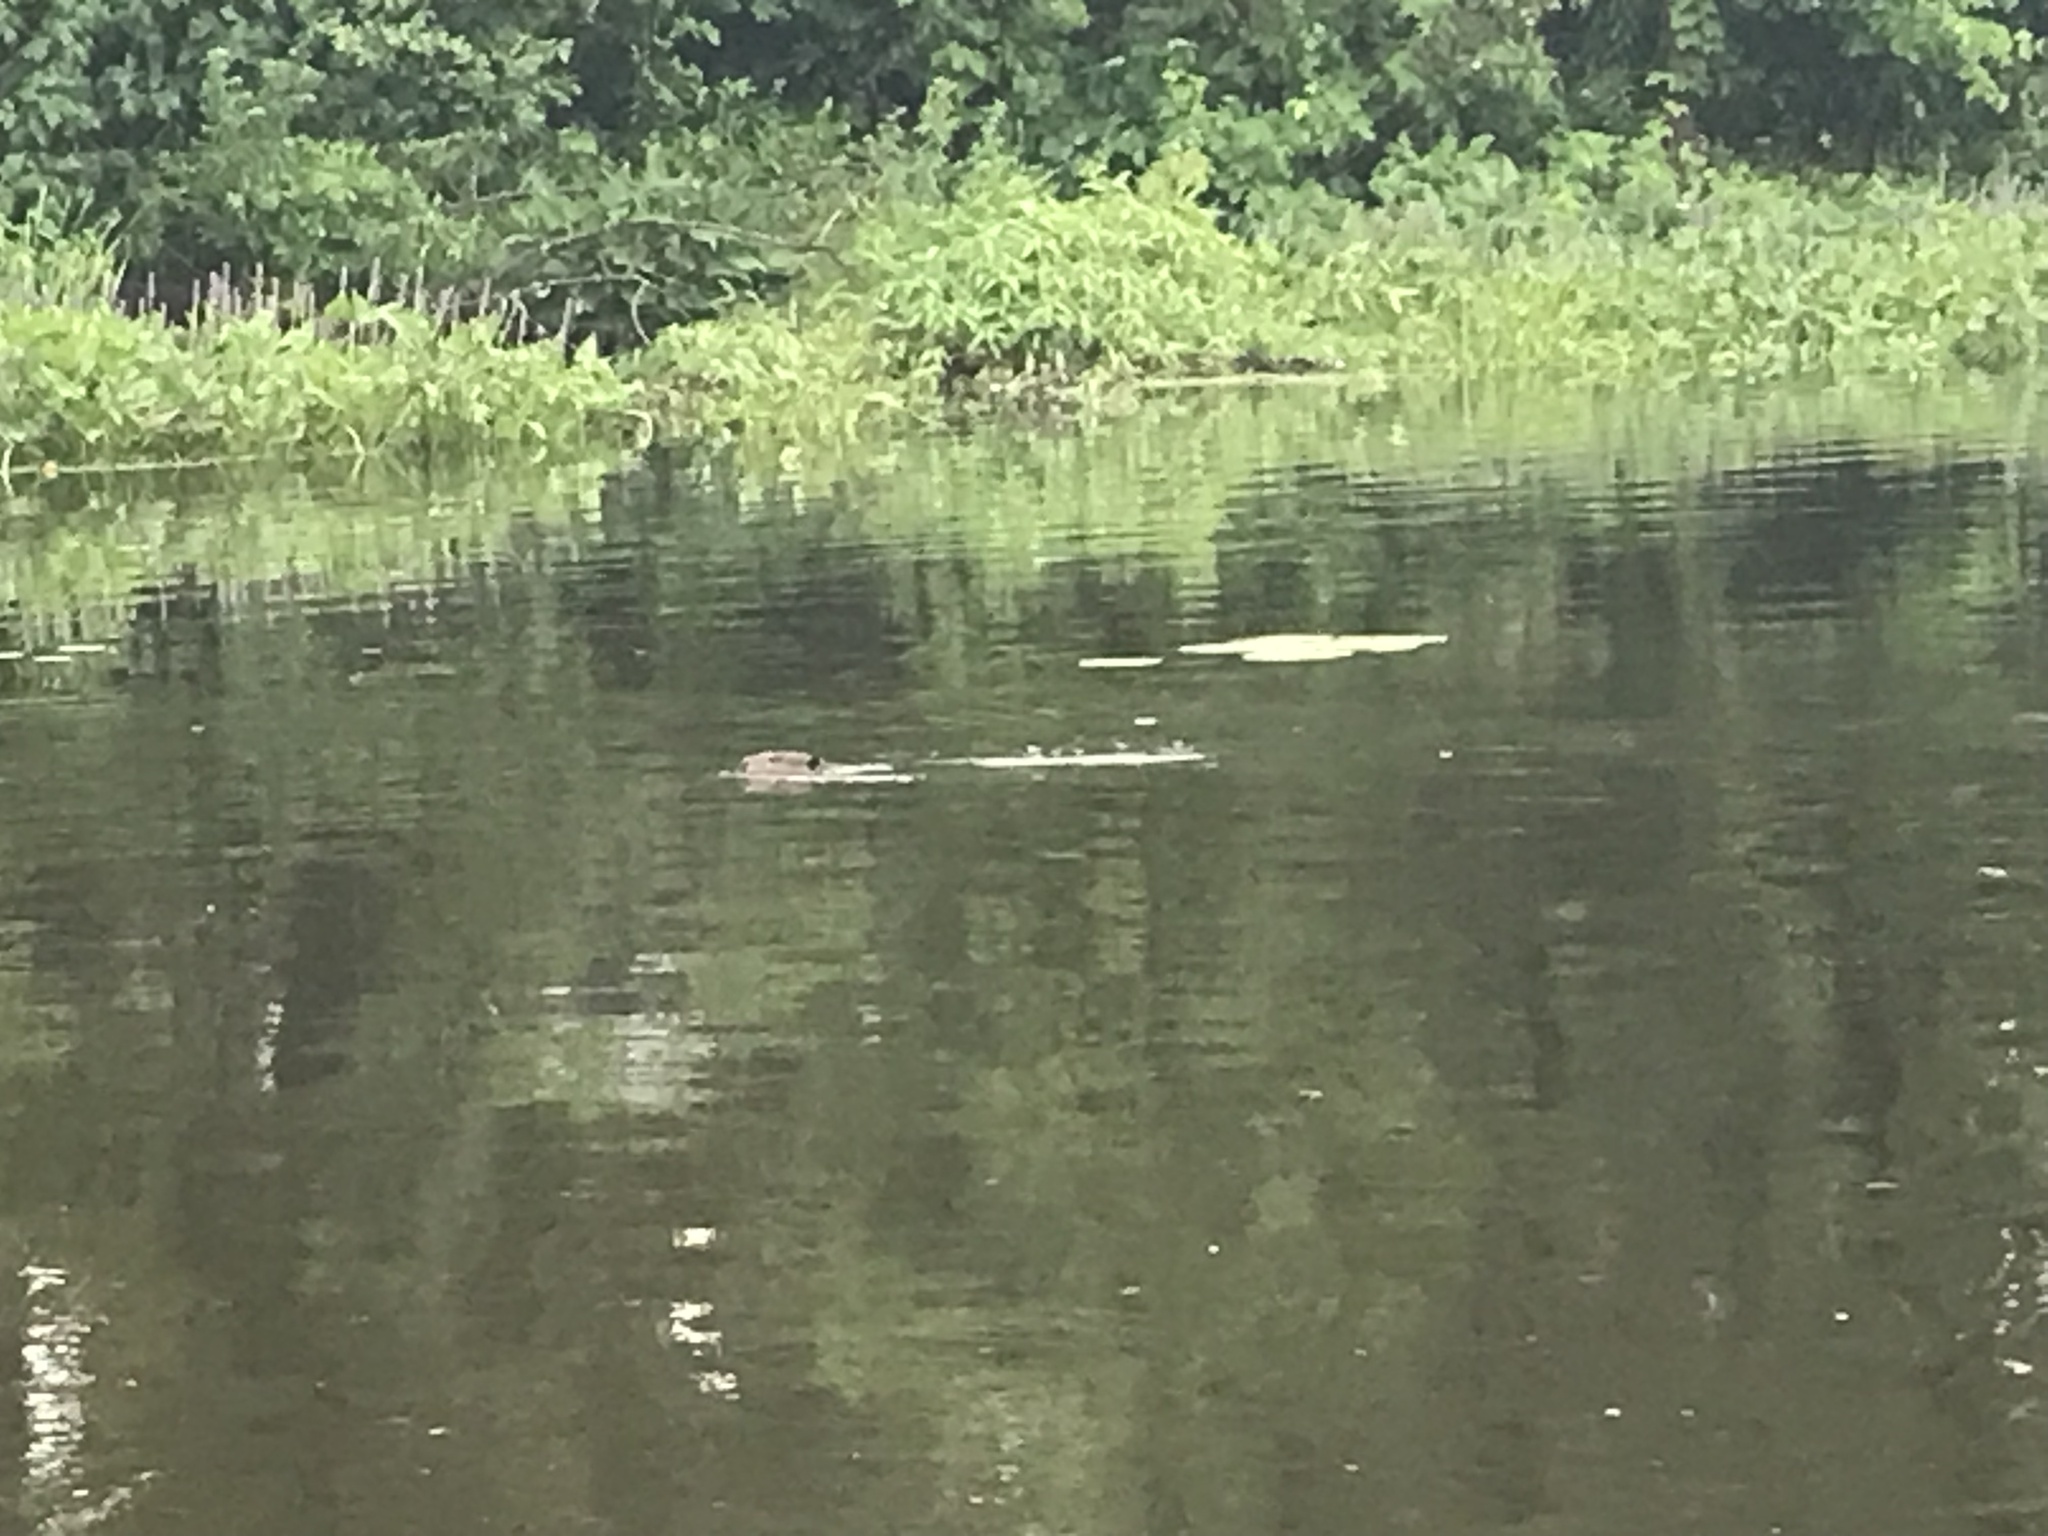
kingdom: Animalia
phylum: Chordata
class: Mammalia
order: Rodentia
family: Castoridae
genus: Castor
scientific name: Castor canadensis
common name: American beaver
